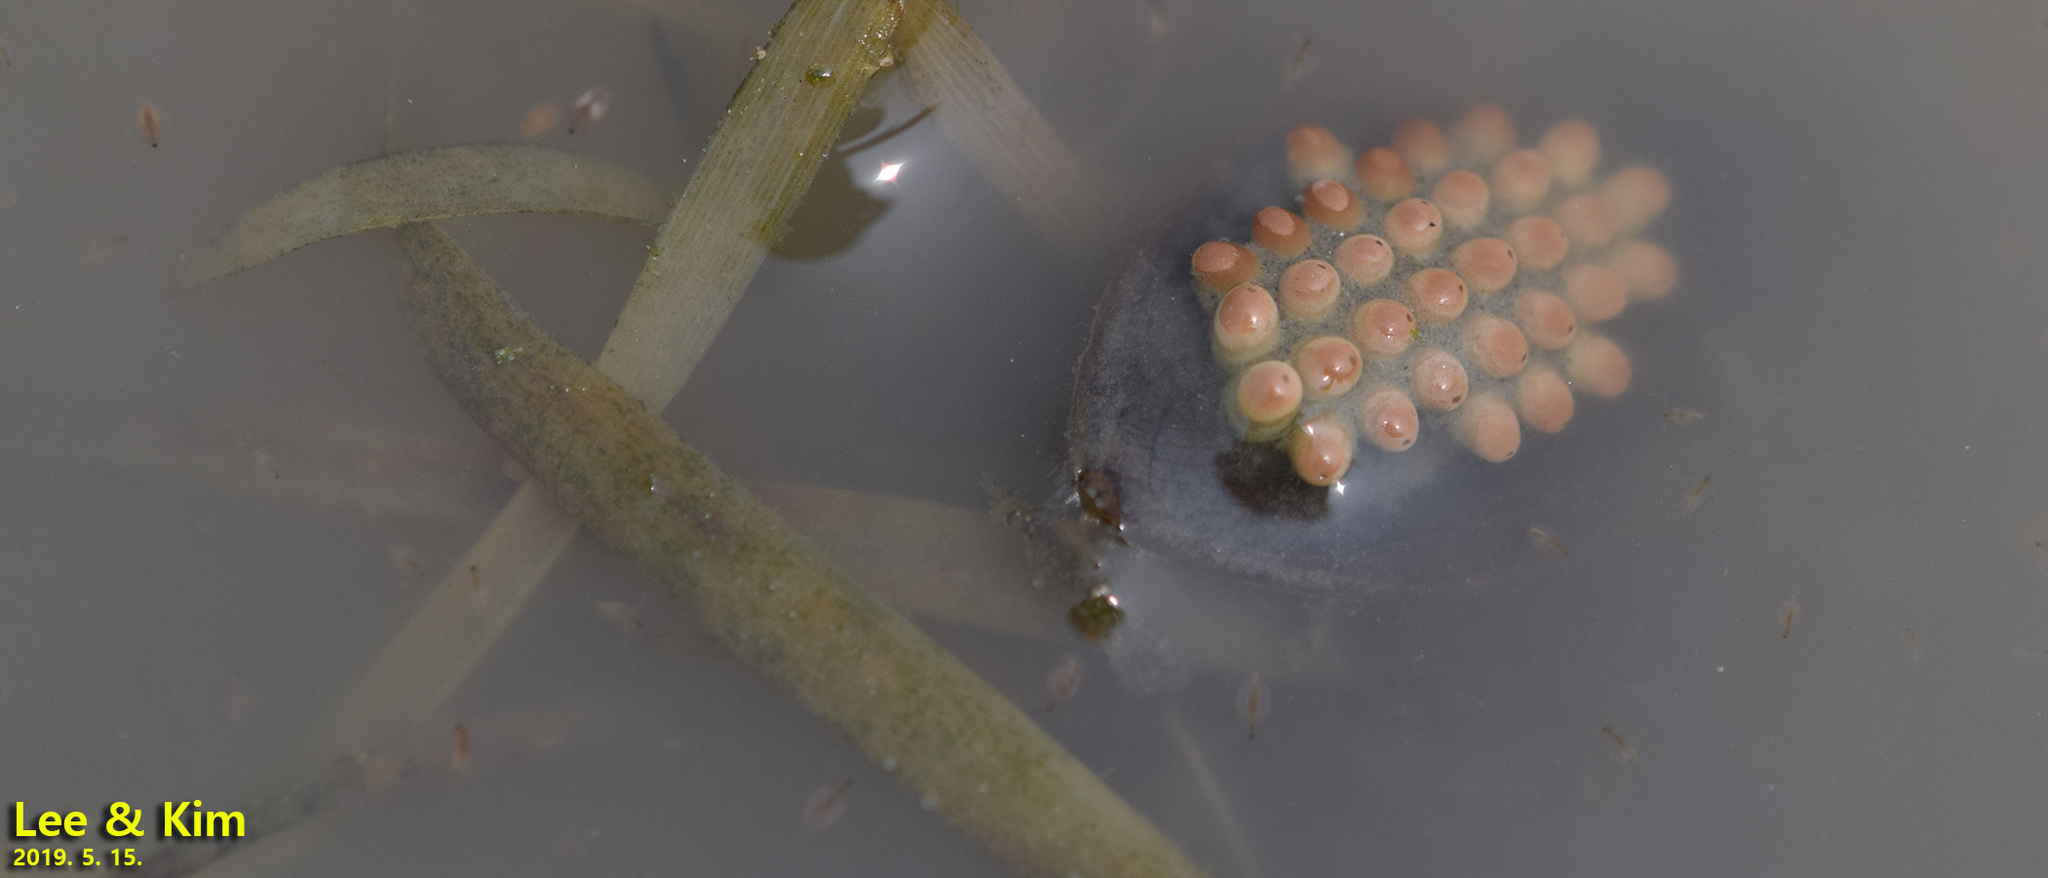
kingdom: Animalia
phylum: Arthropoda
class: Insecta
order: Hemiptera
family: Belostomatidae
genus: Appasus
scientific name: Appasus japonicus
